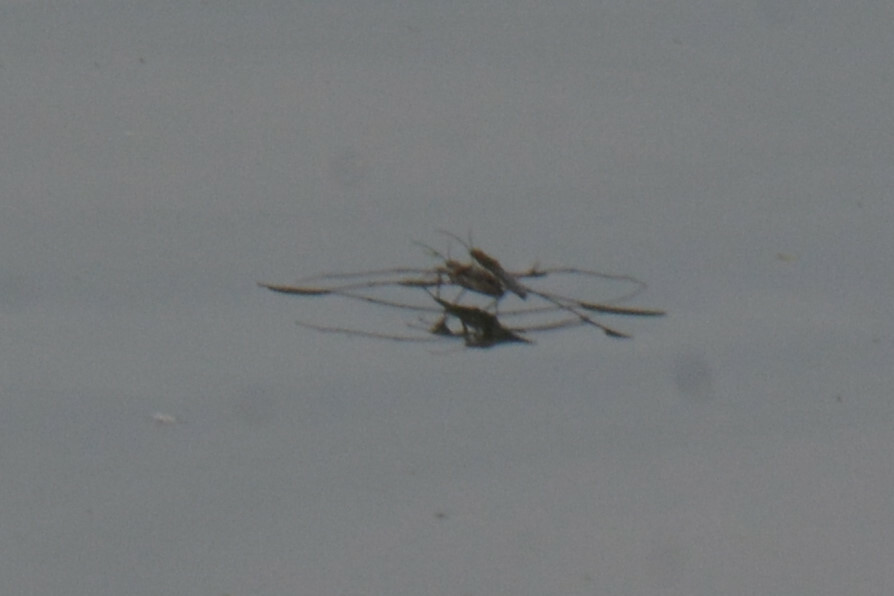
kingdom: Animalia
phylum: Arthropoda
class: Insecta
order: Hemiptera
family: Gerridae
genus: Aquarius
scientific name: Aquarius paludum
